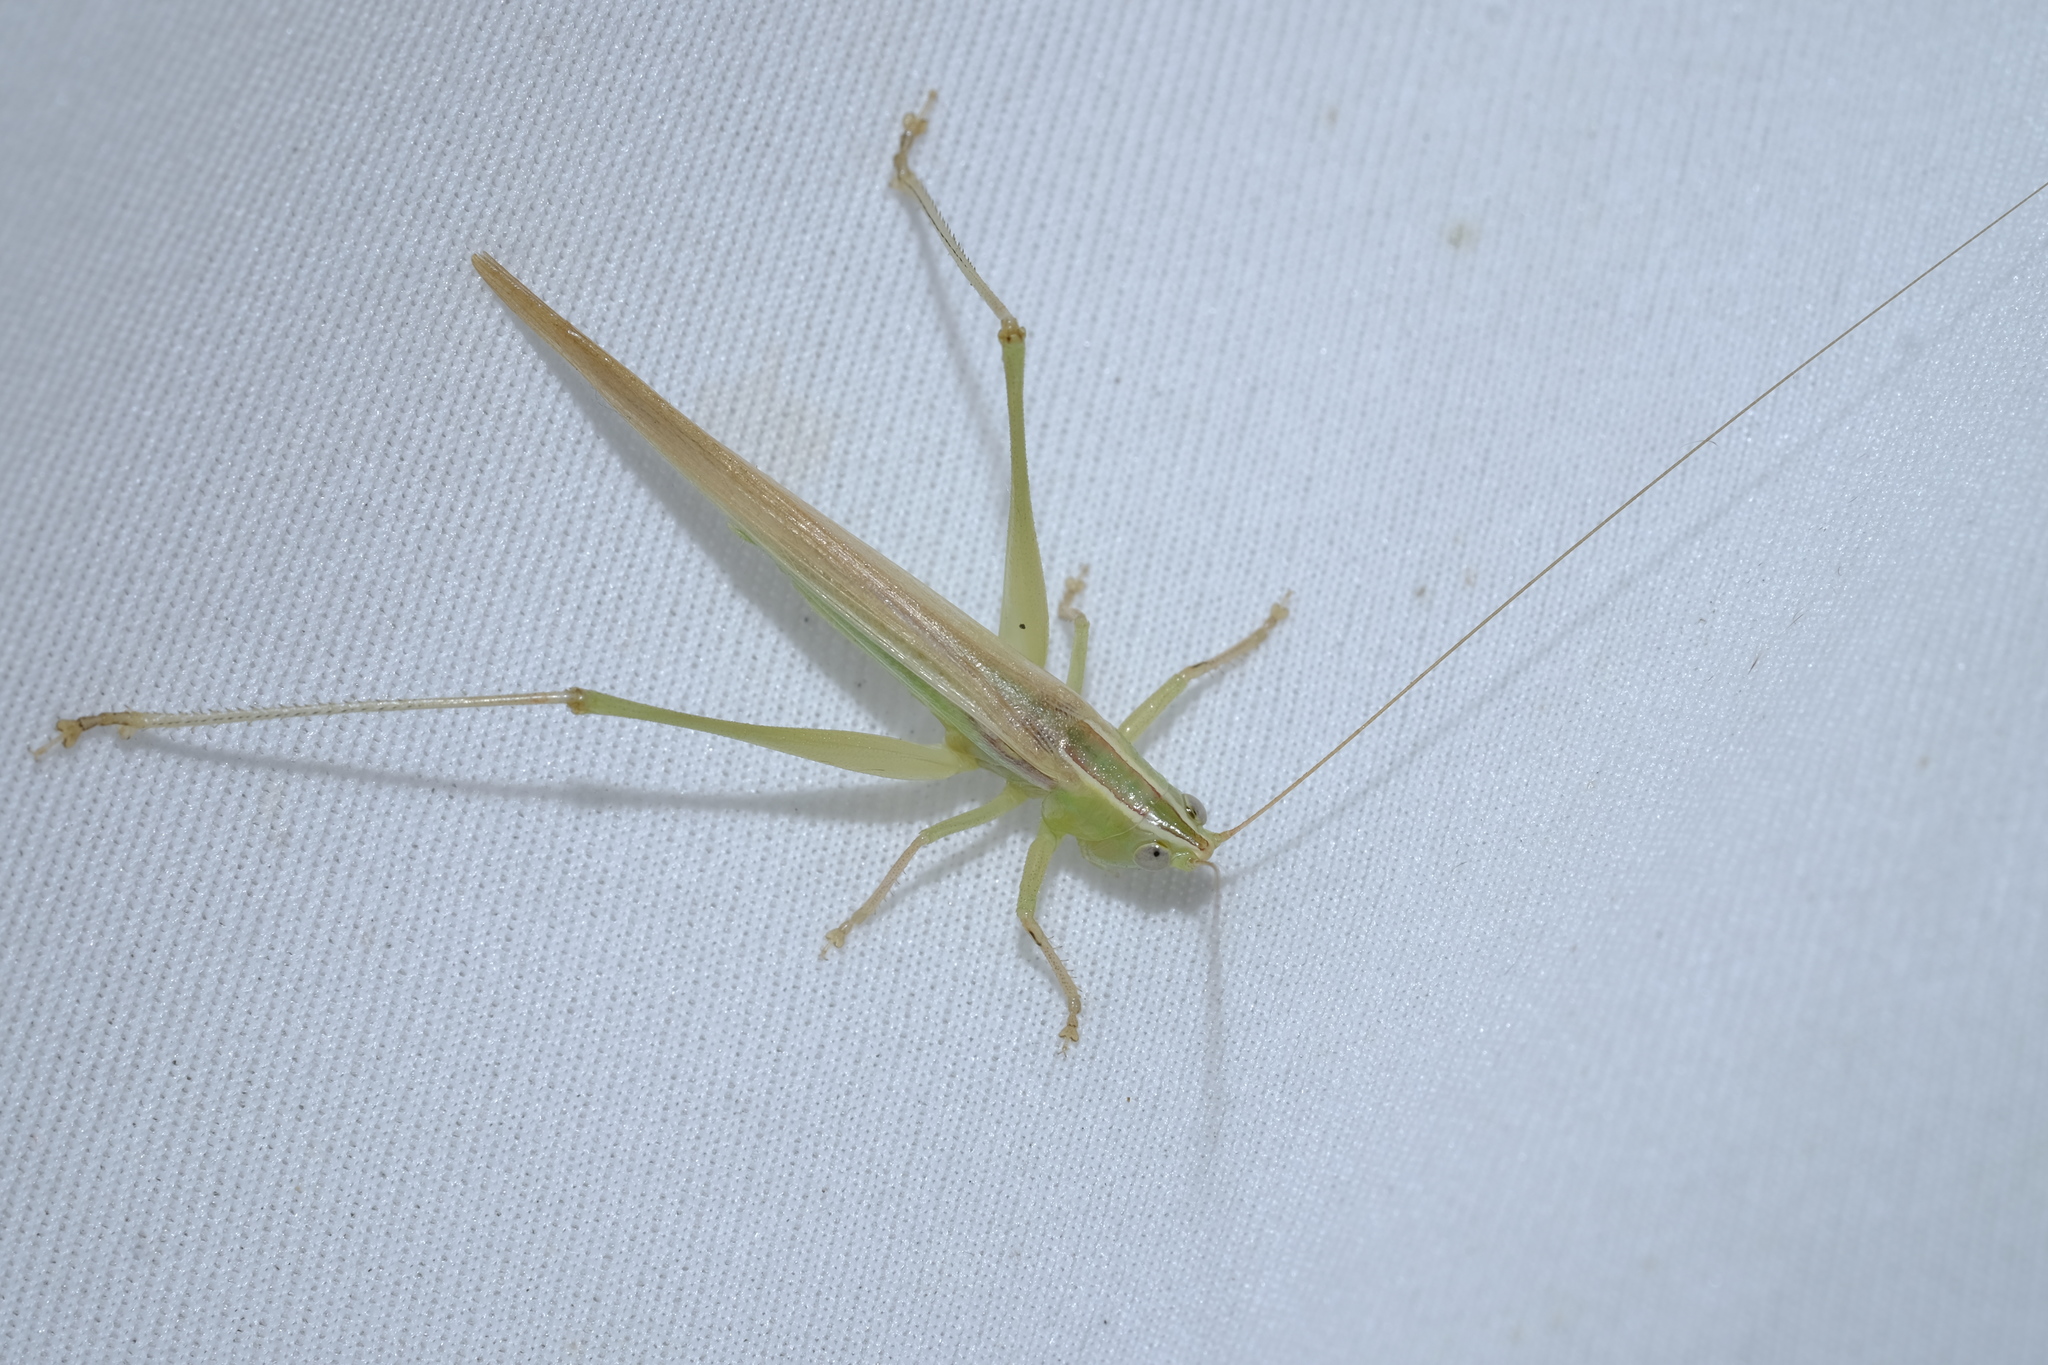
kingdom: Animalia
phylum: Arthropoda
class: Insecta
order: Orthoptera
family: Tettigoniidae
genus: Conocephalus
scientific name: Conocephalus upoluensis
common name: Upolu meadow katydid
